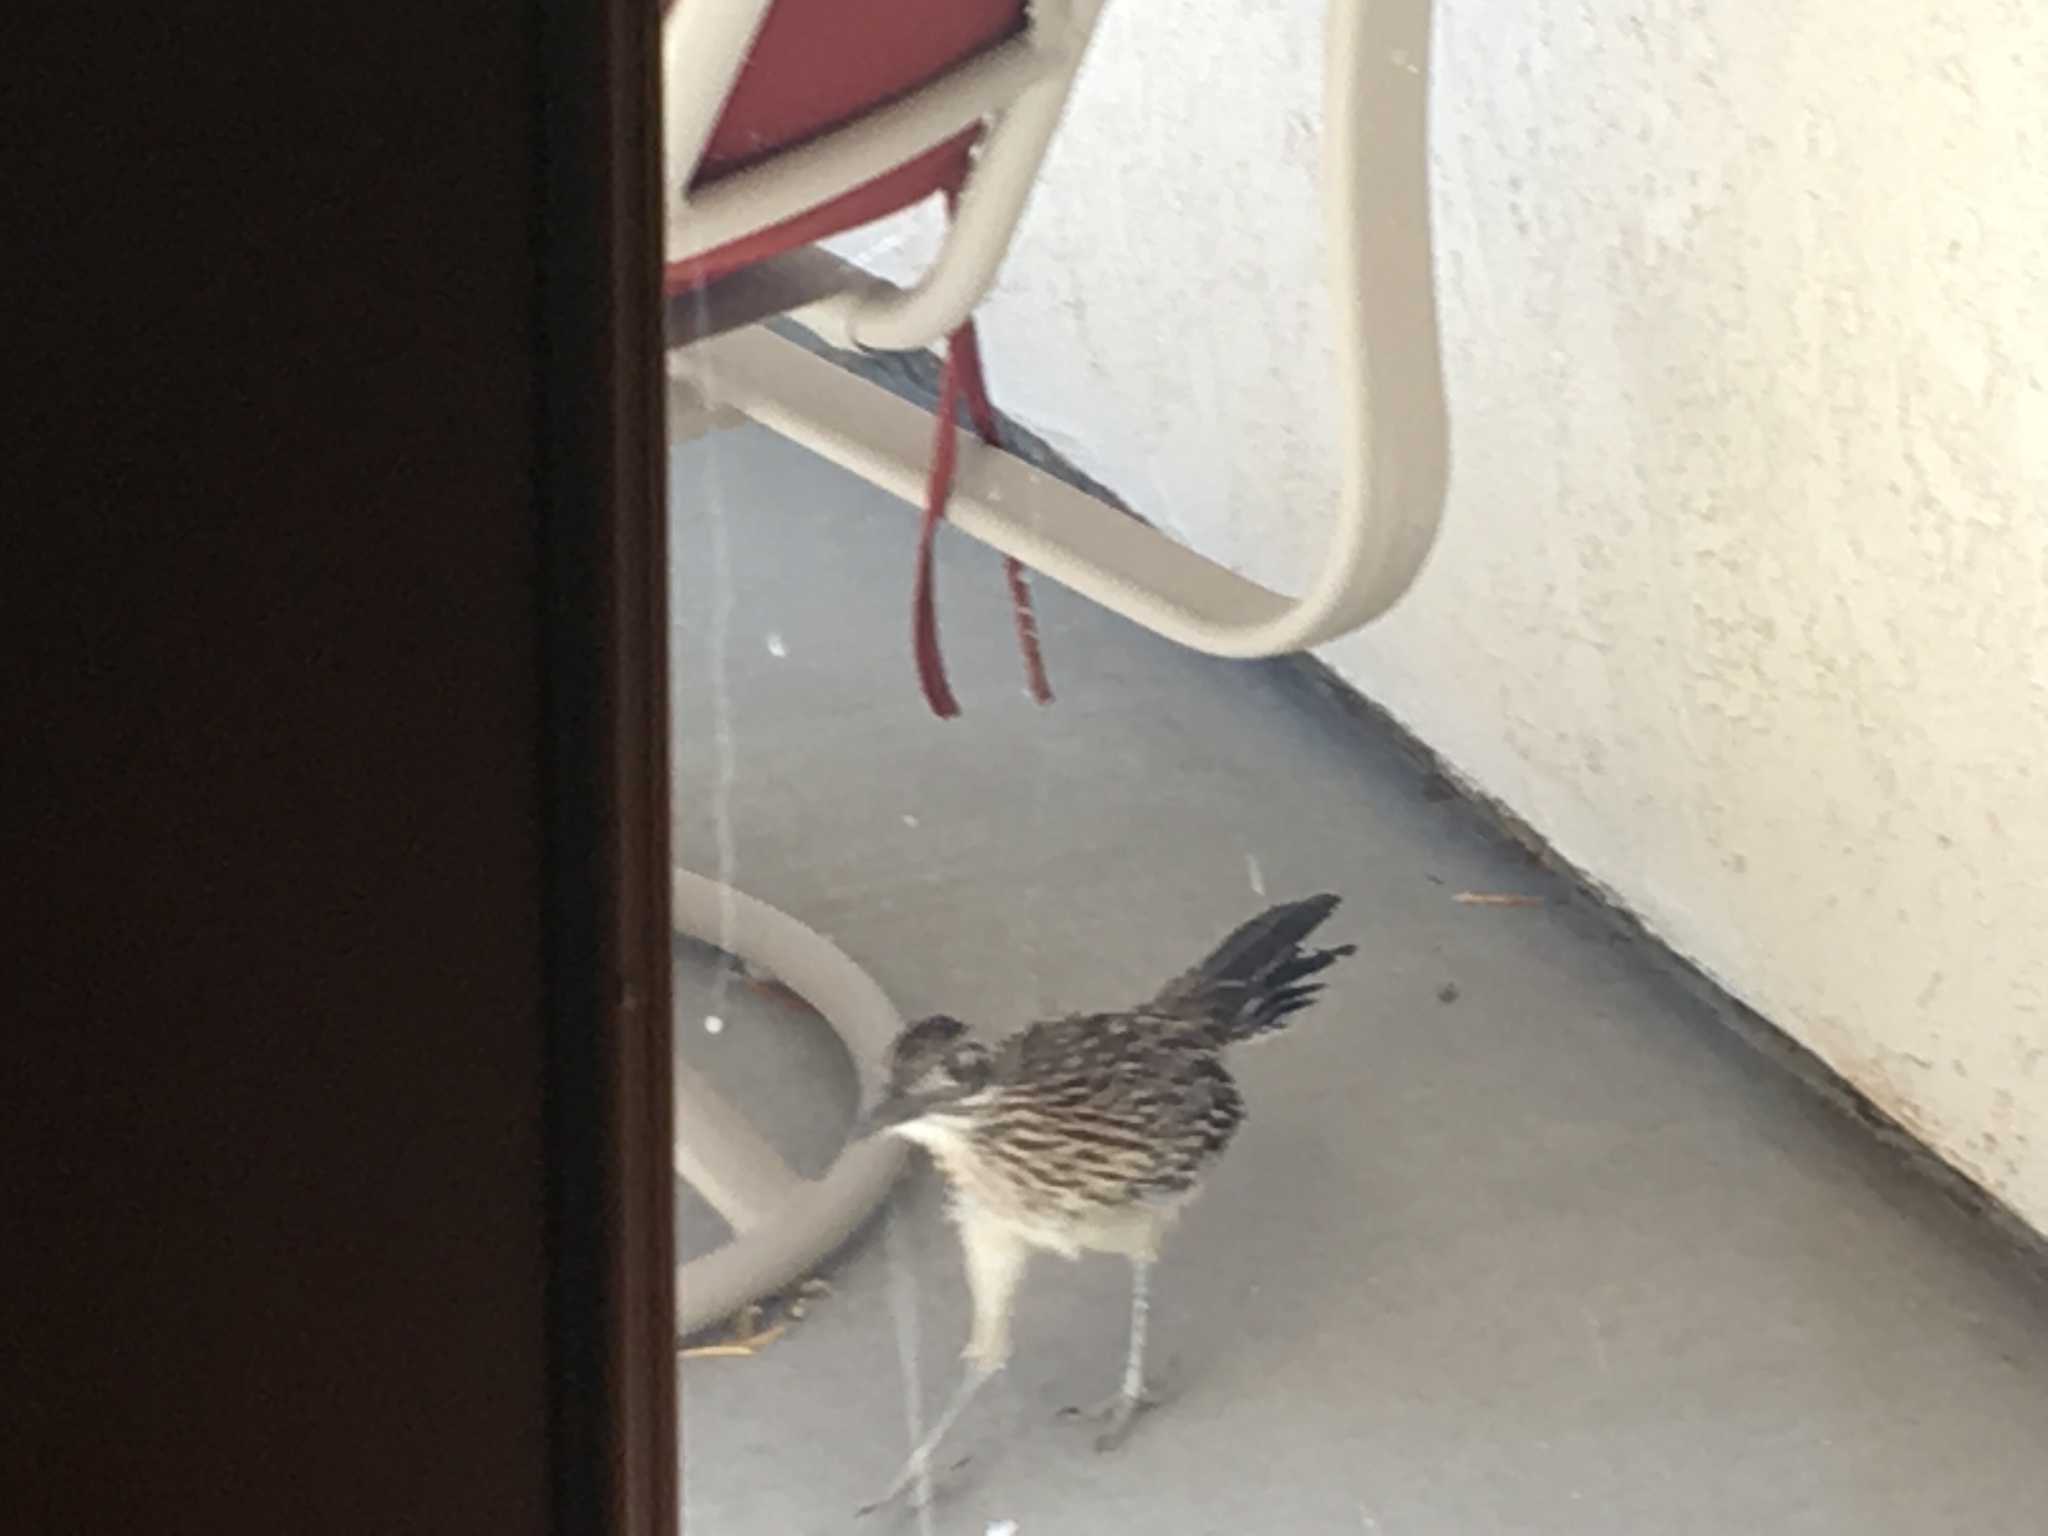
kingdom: Animalia
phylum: Chordata
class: Aves
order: Cuculiformes
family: Cuculidae
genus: Geococcyx
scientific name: Geococcyx californianus
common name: Greater roadrunner
